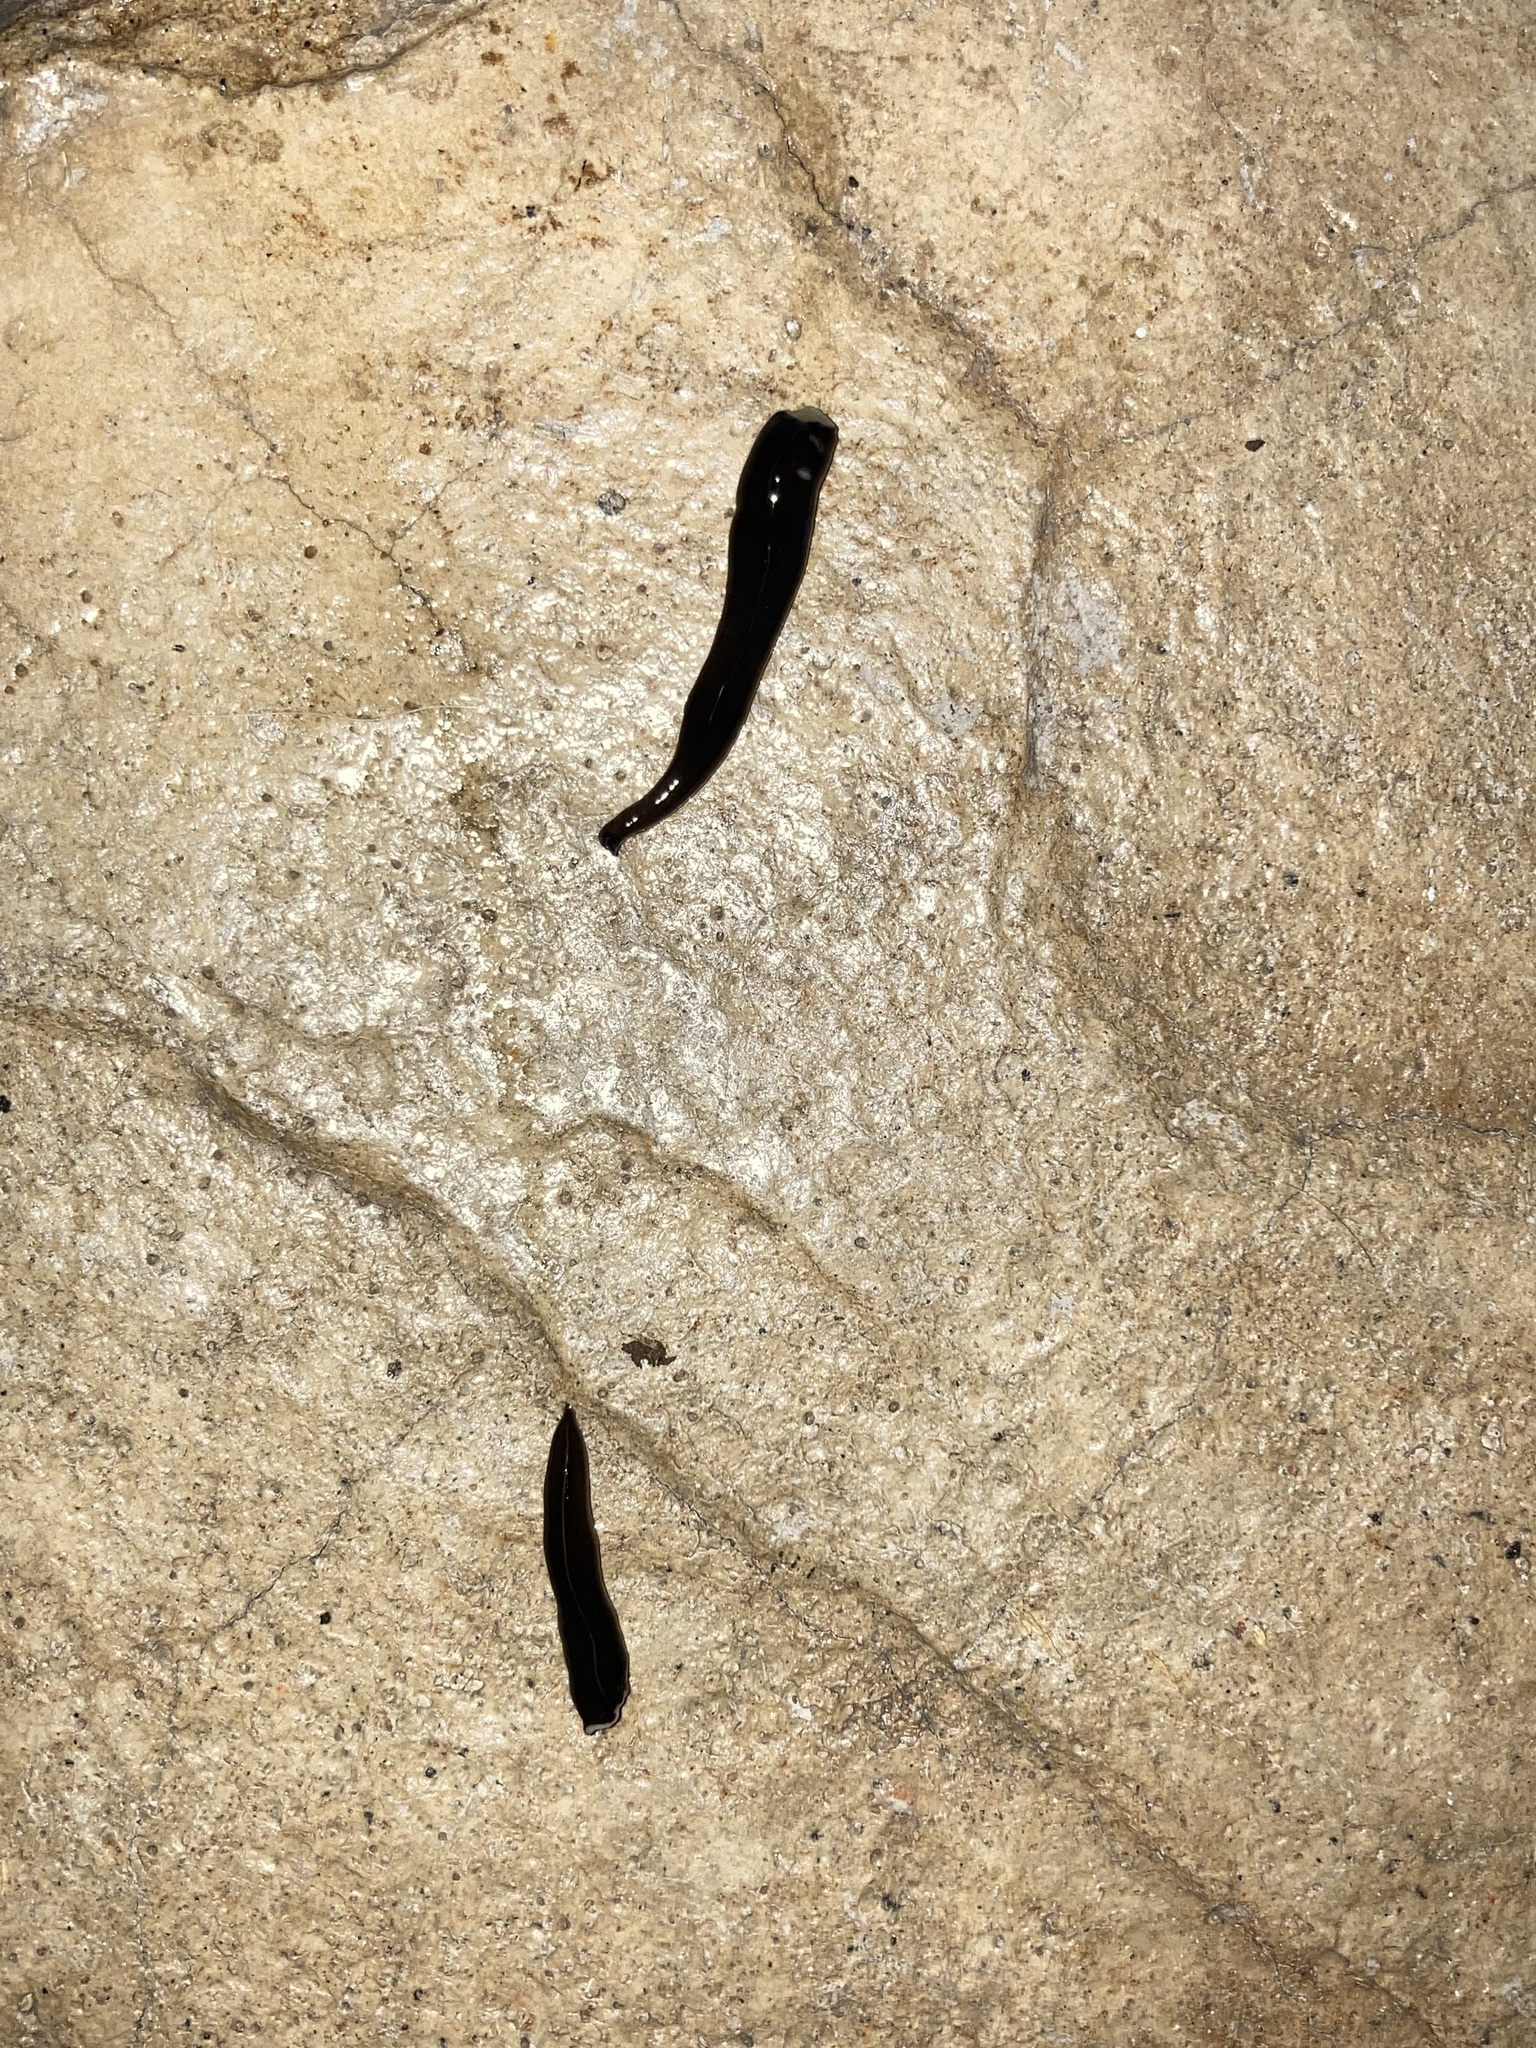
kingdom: Animalia
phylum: Platyhelminthes
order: Tricladida
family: Geoplanidae
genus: Platydemus
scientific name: Platydemus manokwari
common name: New guinea flatworm
